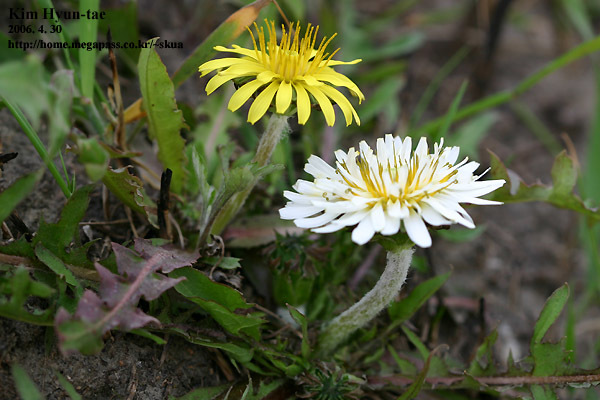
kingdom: Plantae
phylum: Tracheophyta
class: Magnoliopsida
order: Asterales
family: Asteraceae
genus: Taraxacum
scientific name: Taraxacum coreanum
